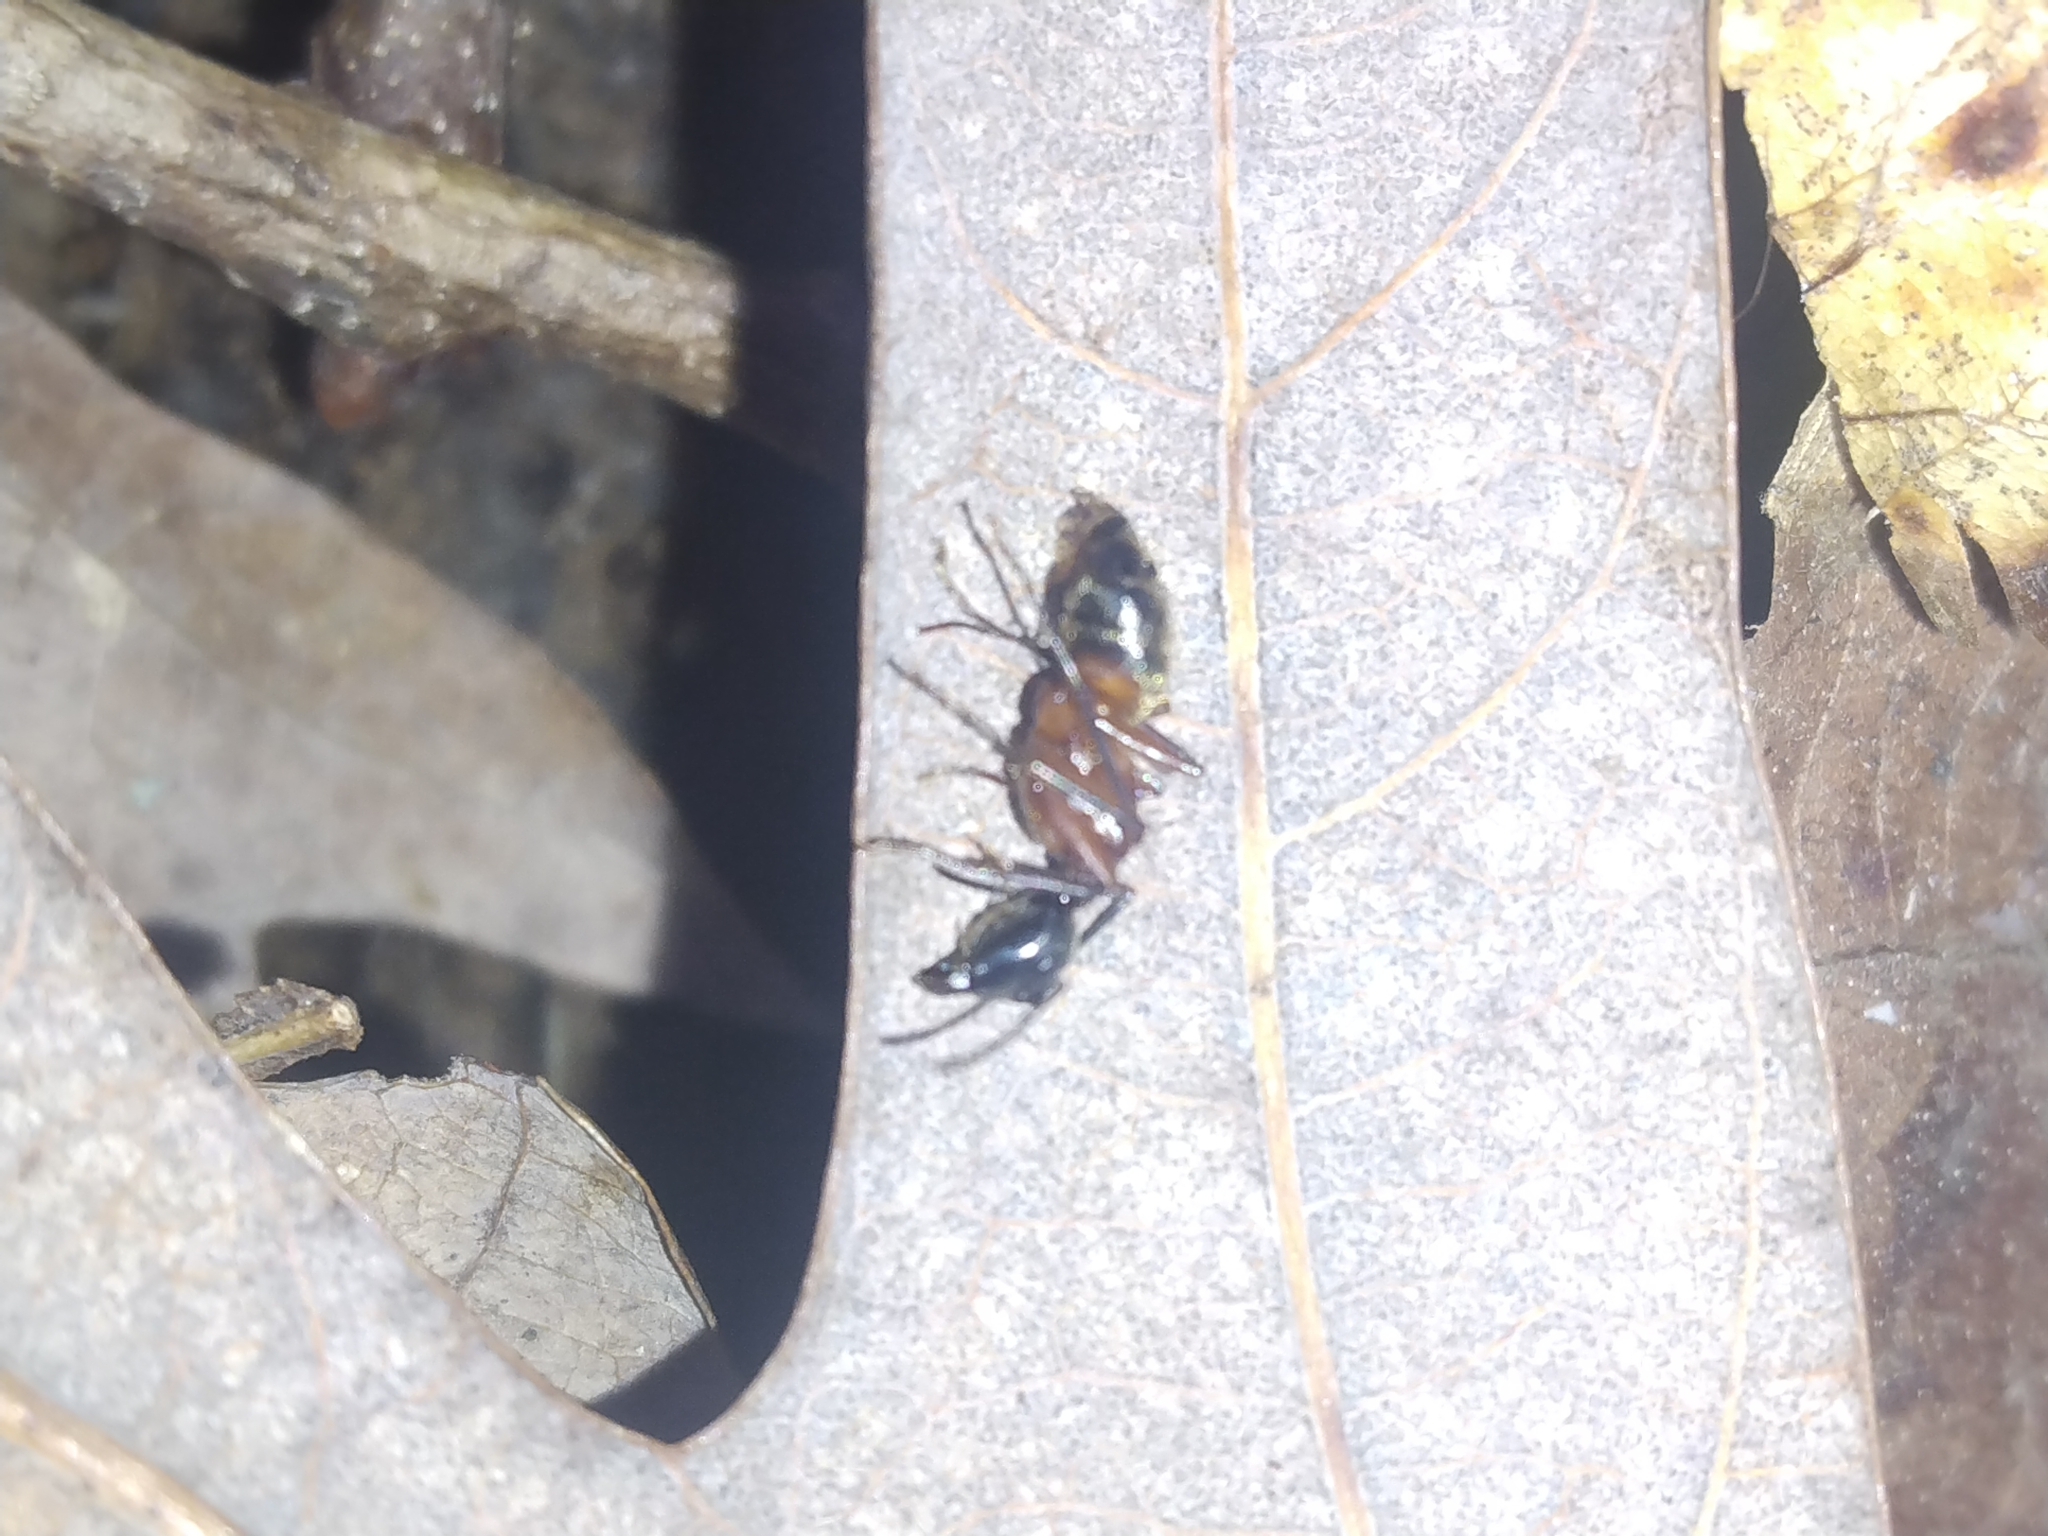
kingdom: Animalia
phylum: Arthropoda
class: Insecta
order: Hymenoptera
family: Formicidae
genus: Camponotus
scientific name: Camponotus chromaiodes
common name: Red carpenter ant
